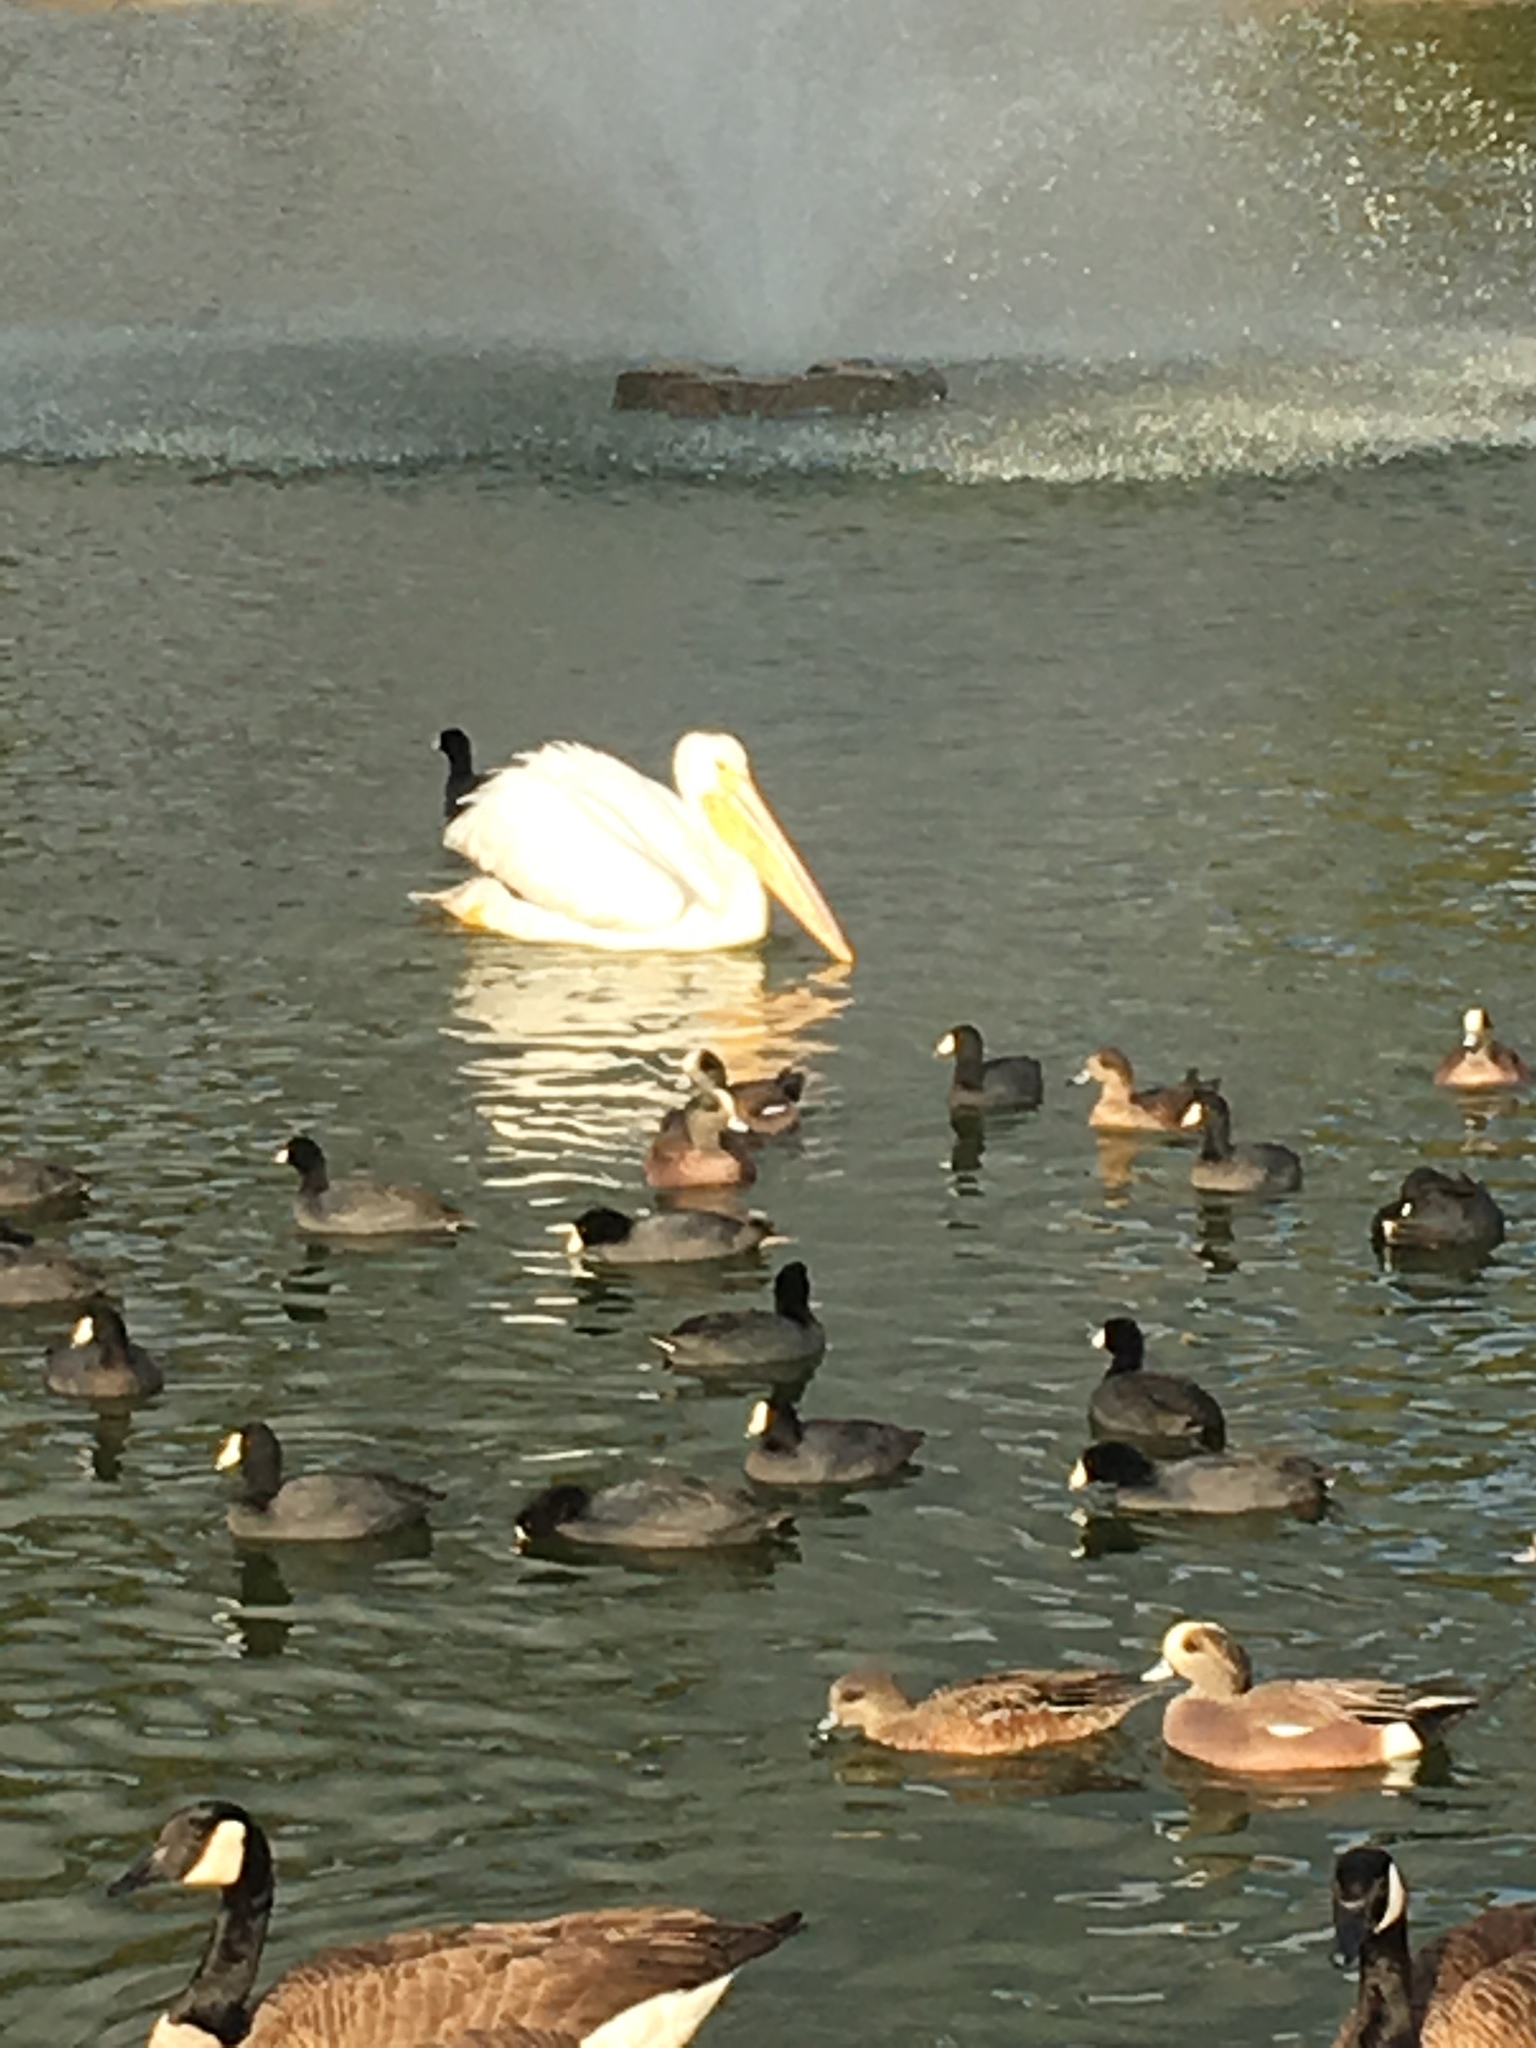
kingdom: Animalia
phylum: Chordata
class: Aves
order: Pelecaniformes
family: Pelecanidae
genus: Pelecanus
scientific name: Pelecanus erythrorhynchos
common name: American white pelican
